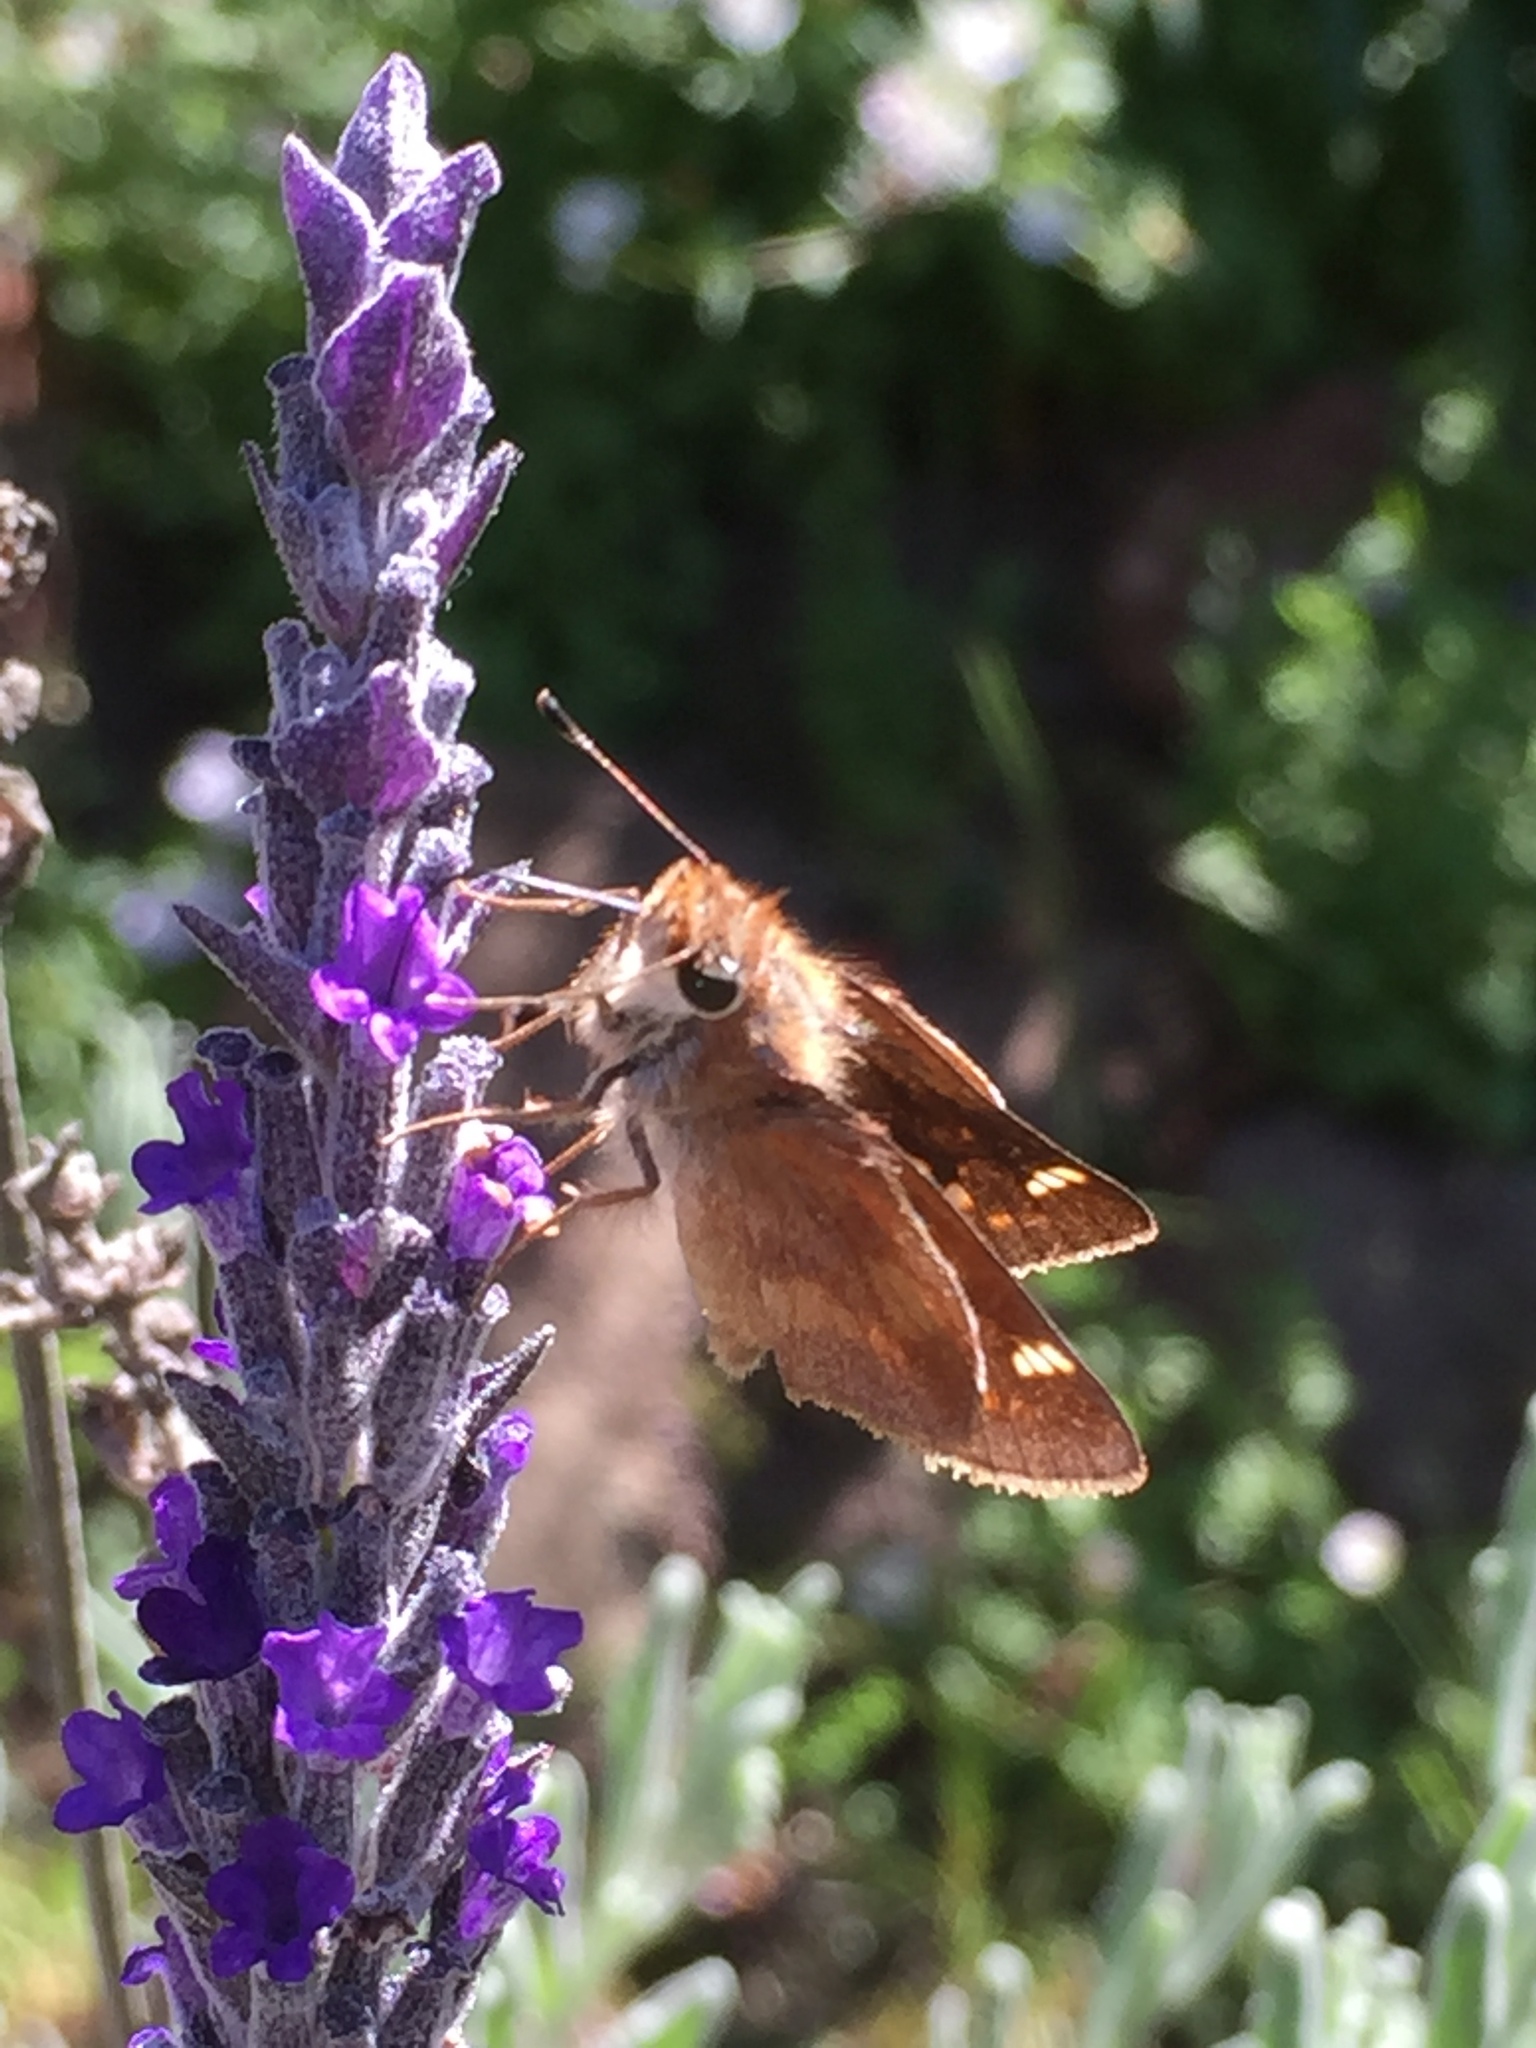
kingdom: Animalia
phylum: Arthropoda
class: Insecta
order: Lepidoptera
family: Hesperiidae
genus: Lon
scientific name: Lon melane
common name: Umber skipper
